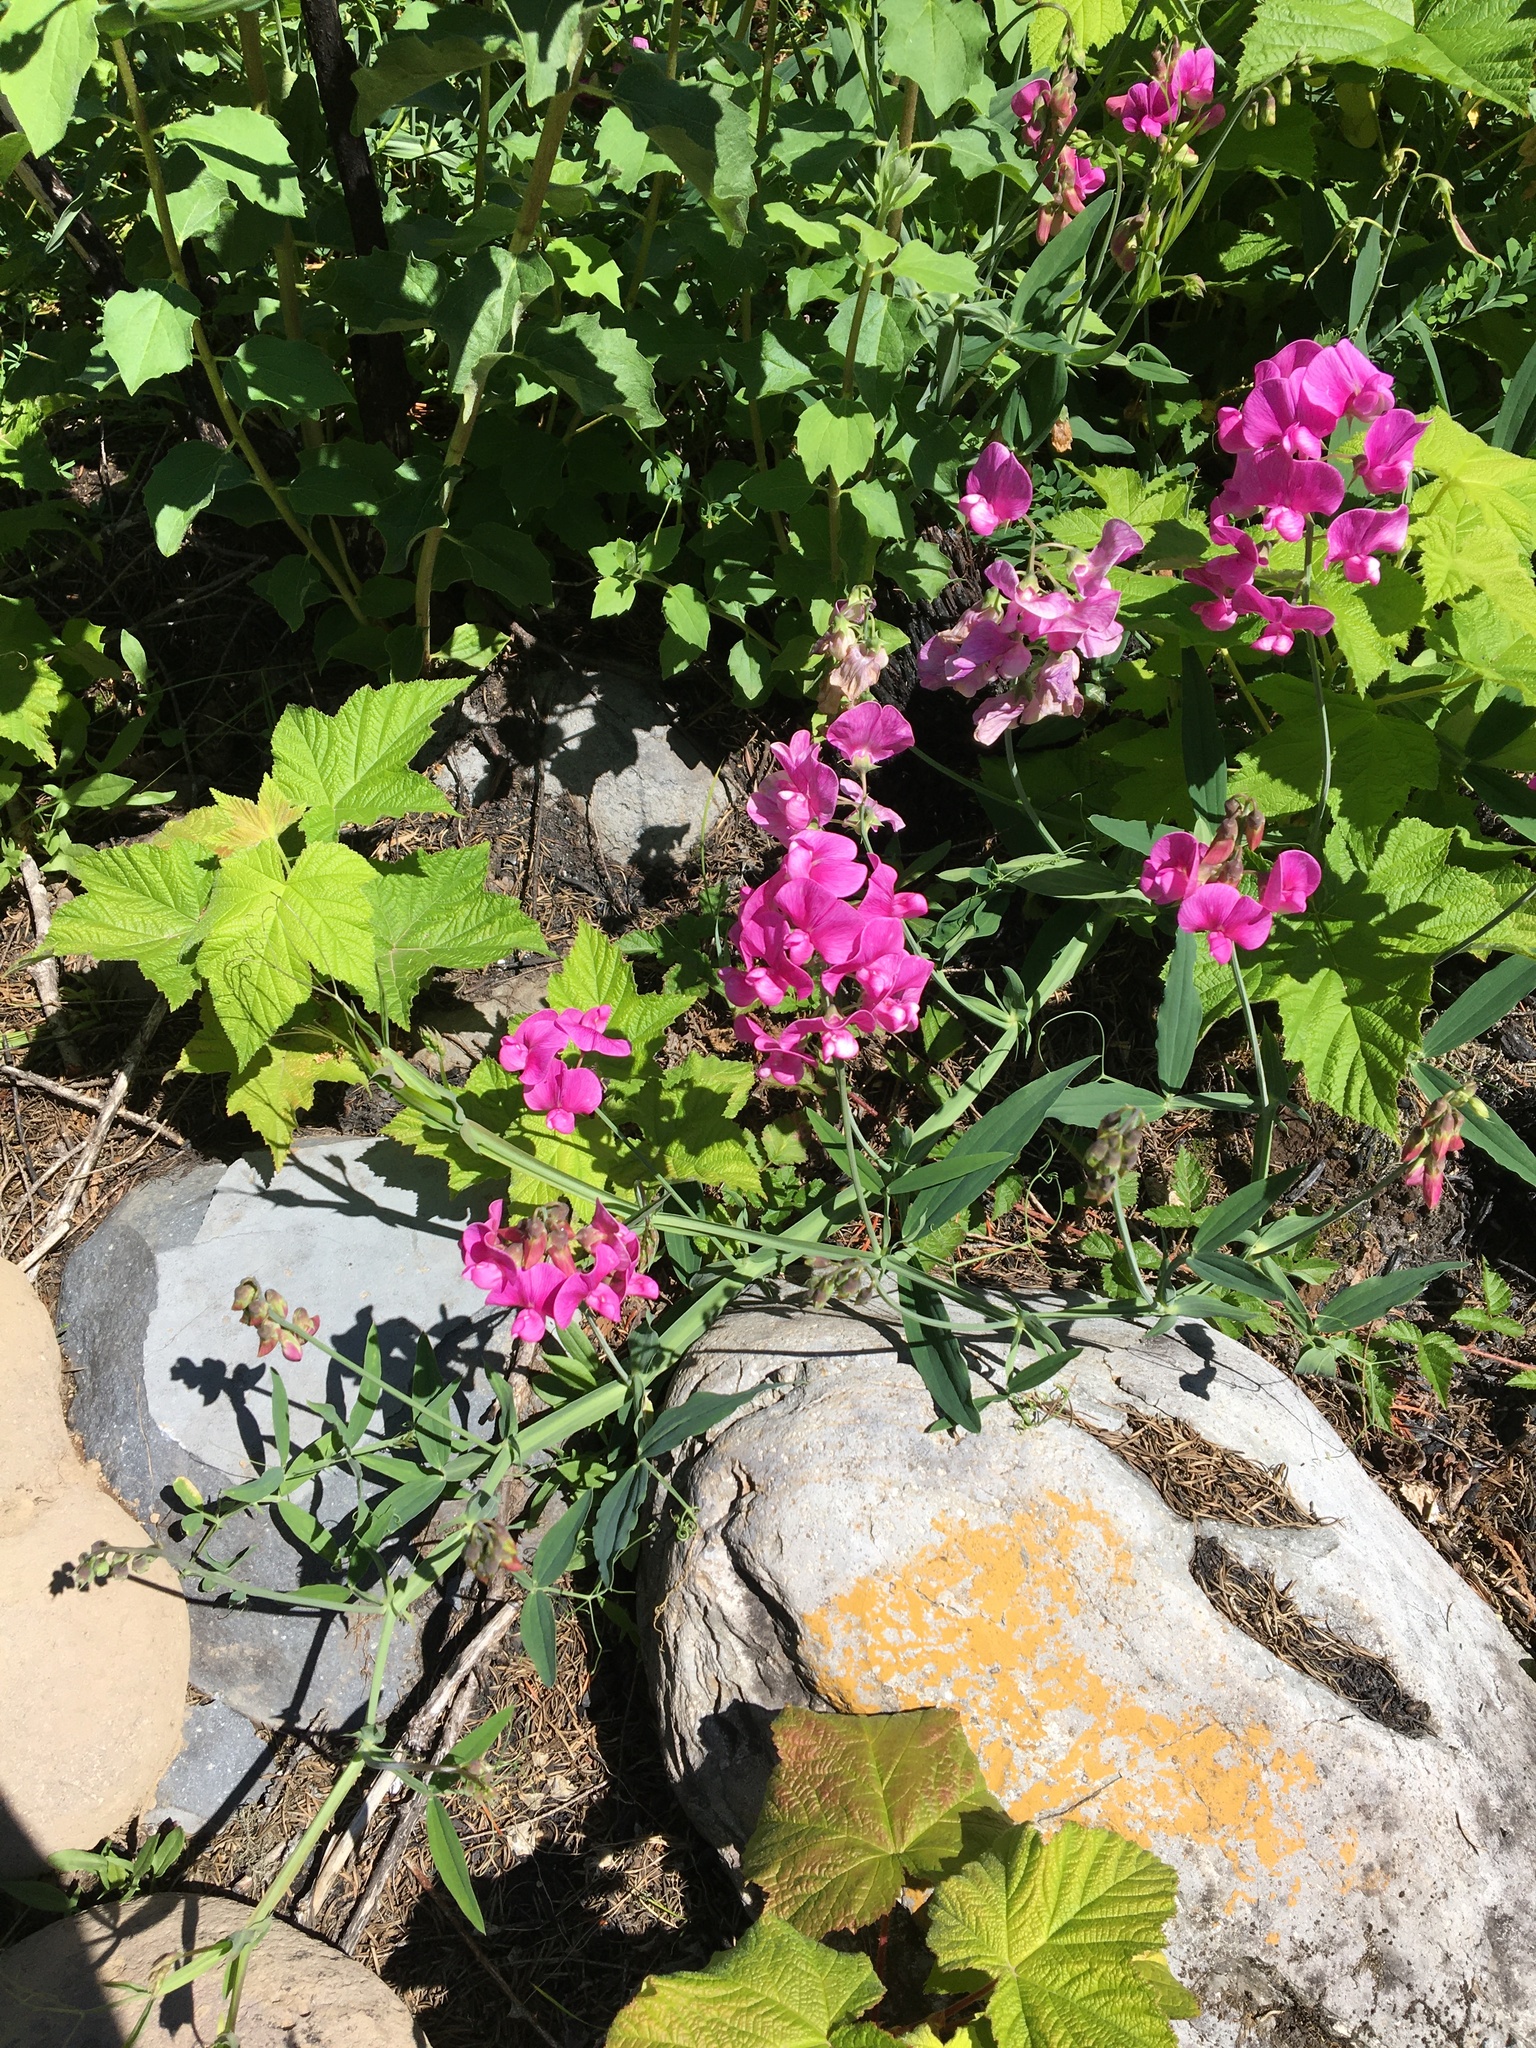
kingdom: Plantae
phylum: Tracheophyta
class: Magnoliopsida
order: Fabales
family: Fabaceae
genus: Lathyrus
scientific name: Lathyrus latifolius
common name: Perennial pea
